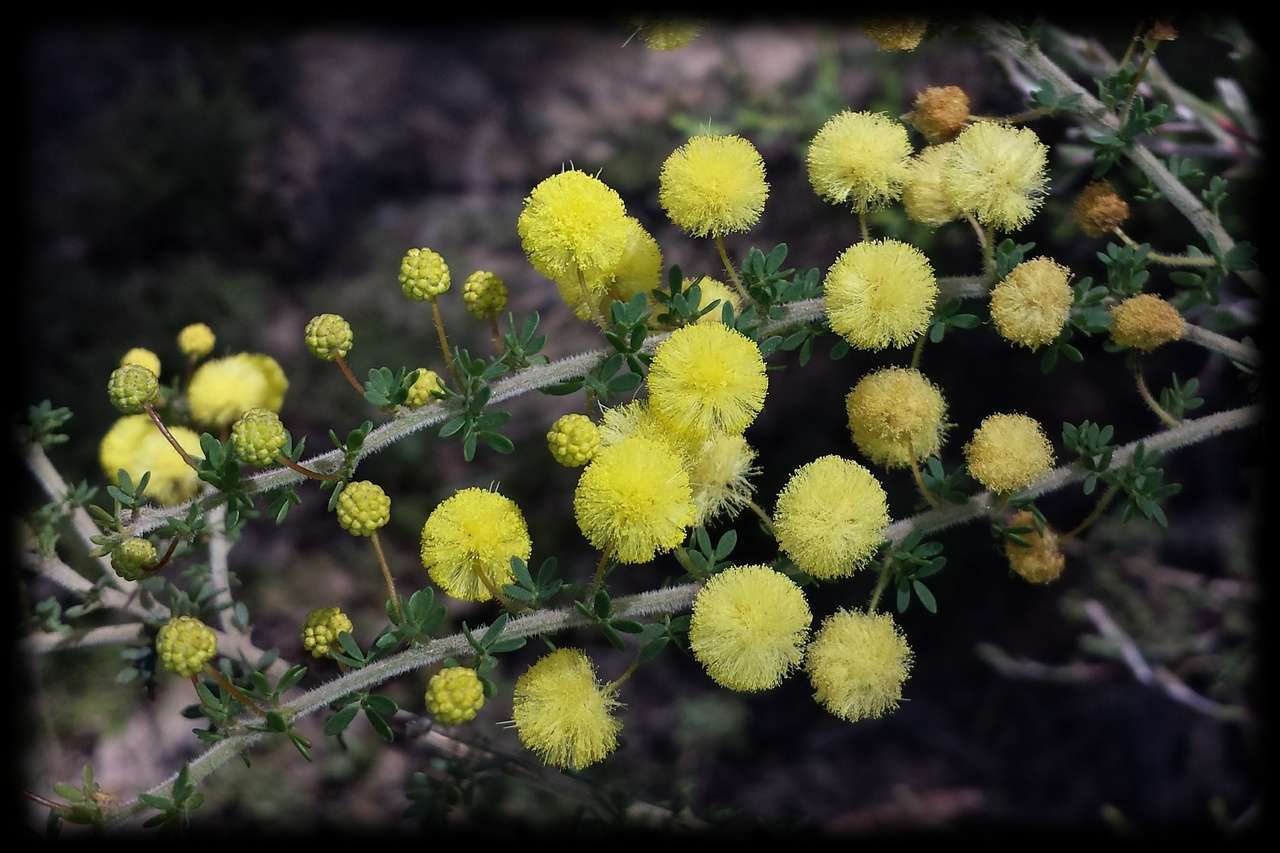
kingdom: Plantae
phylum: Tracheophyta
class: Magnoliopsida
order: Fabales
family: Fabaceae
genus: Acacia
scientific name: Acacia mitchellii
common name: Mitchell's wattle
